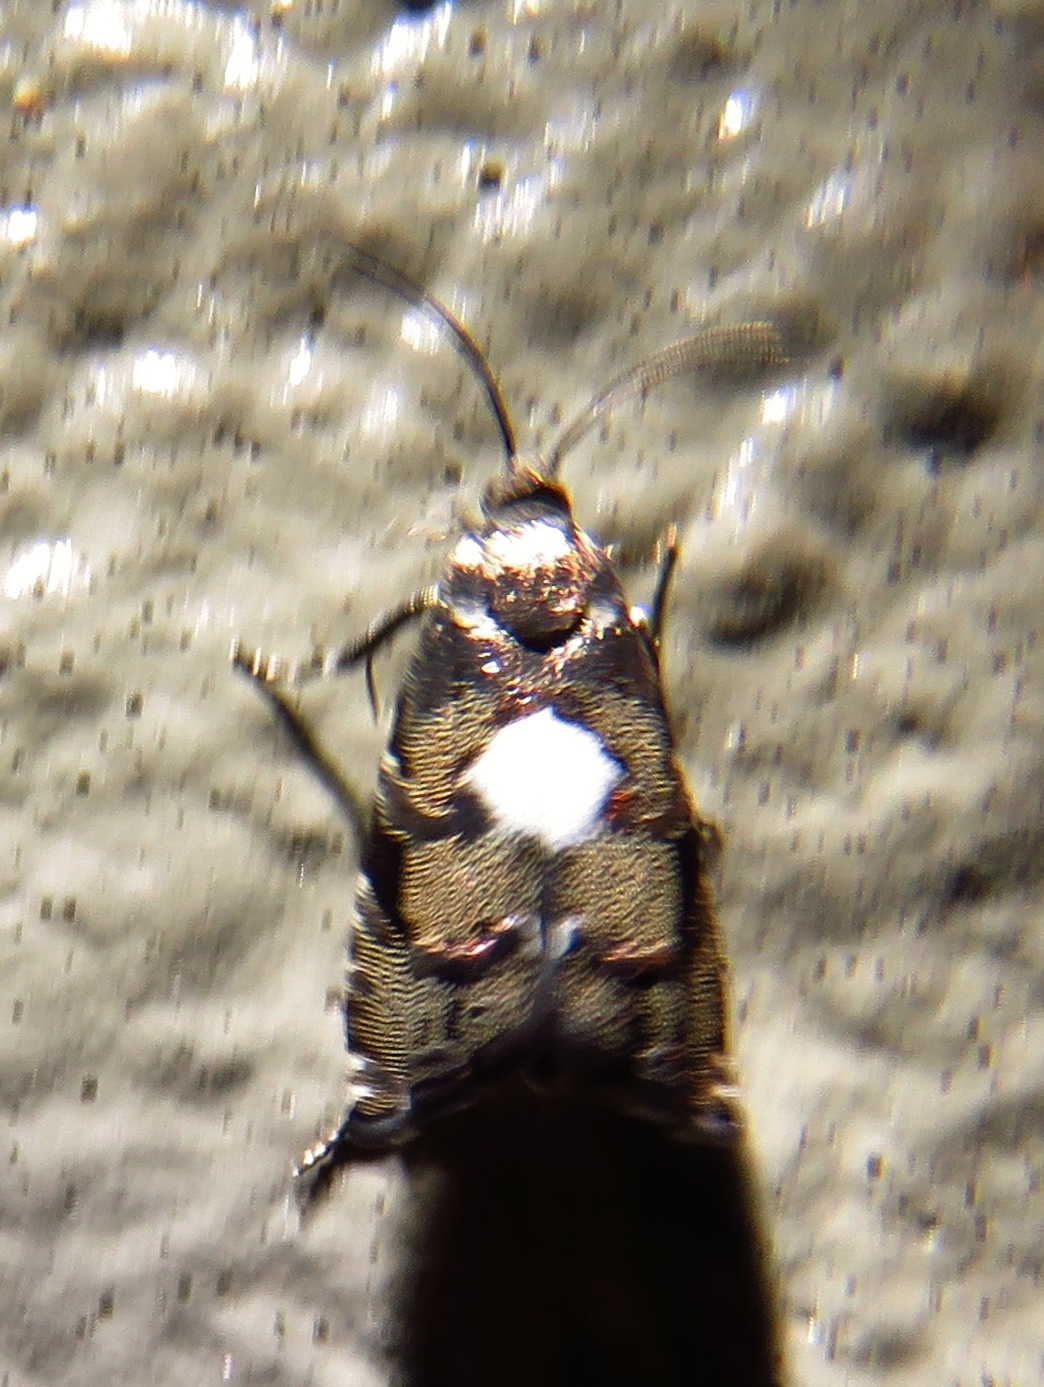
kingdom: Animalia
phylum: Arthropoda
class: Insecta
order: Lepidoptera
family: Tortricidae
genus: Cydia
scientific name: Cydia albimaculana
